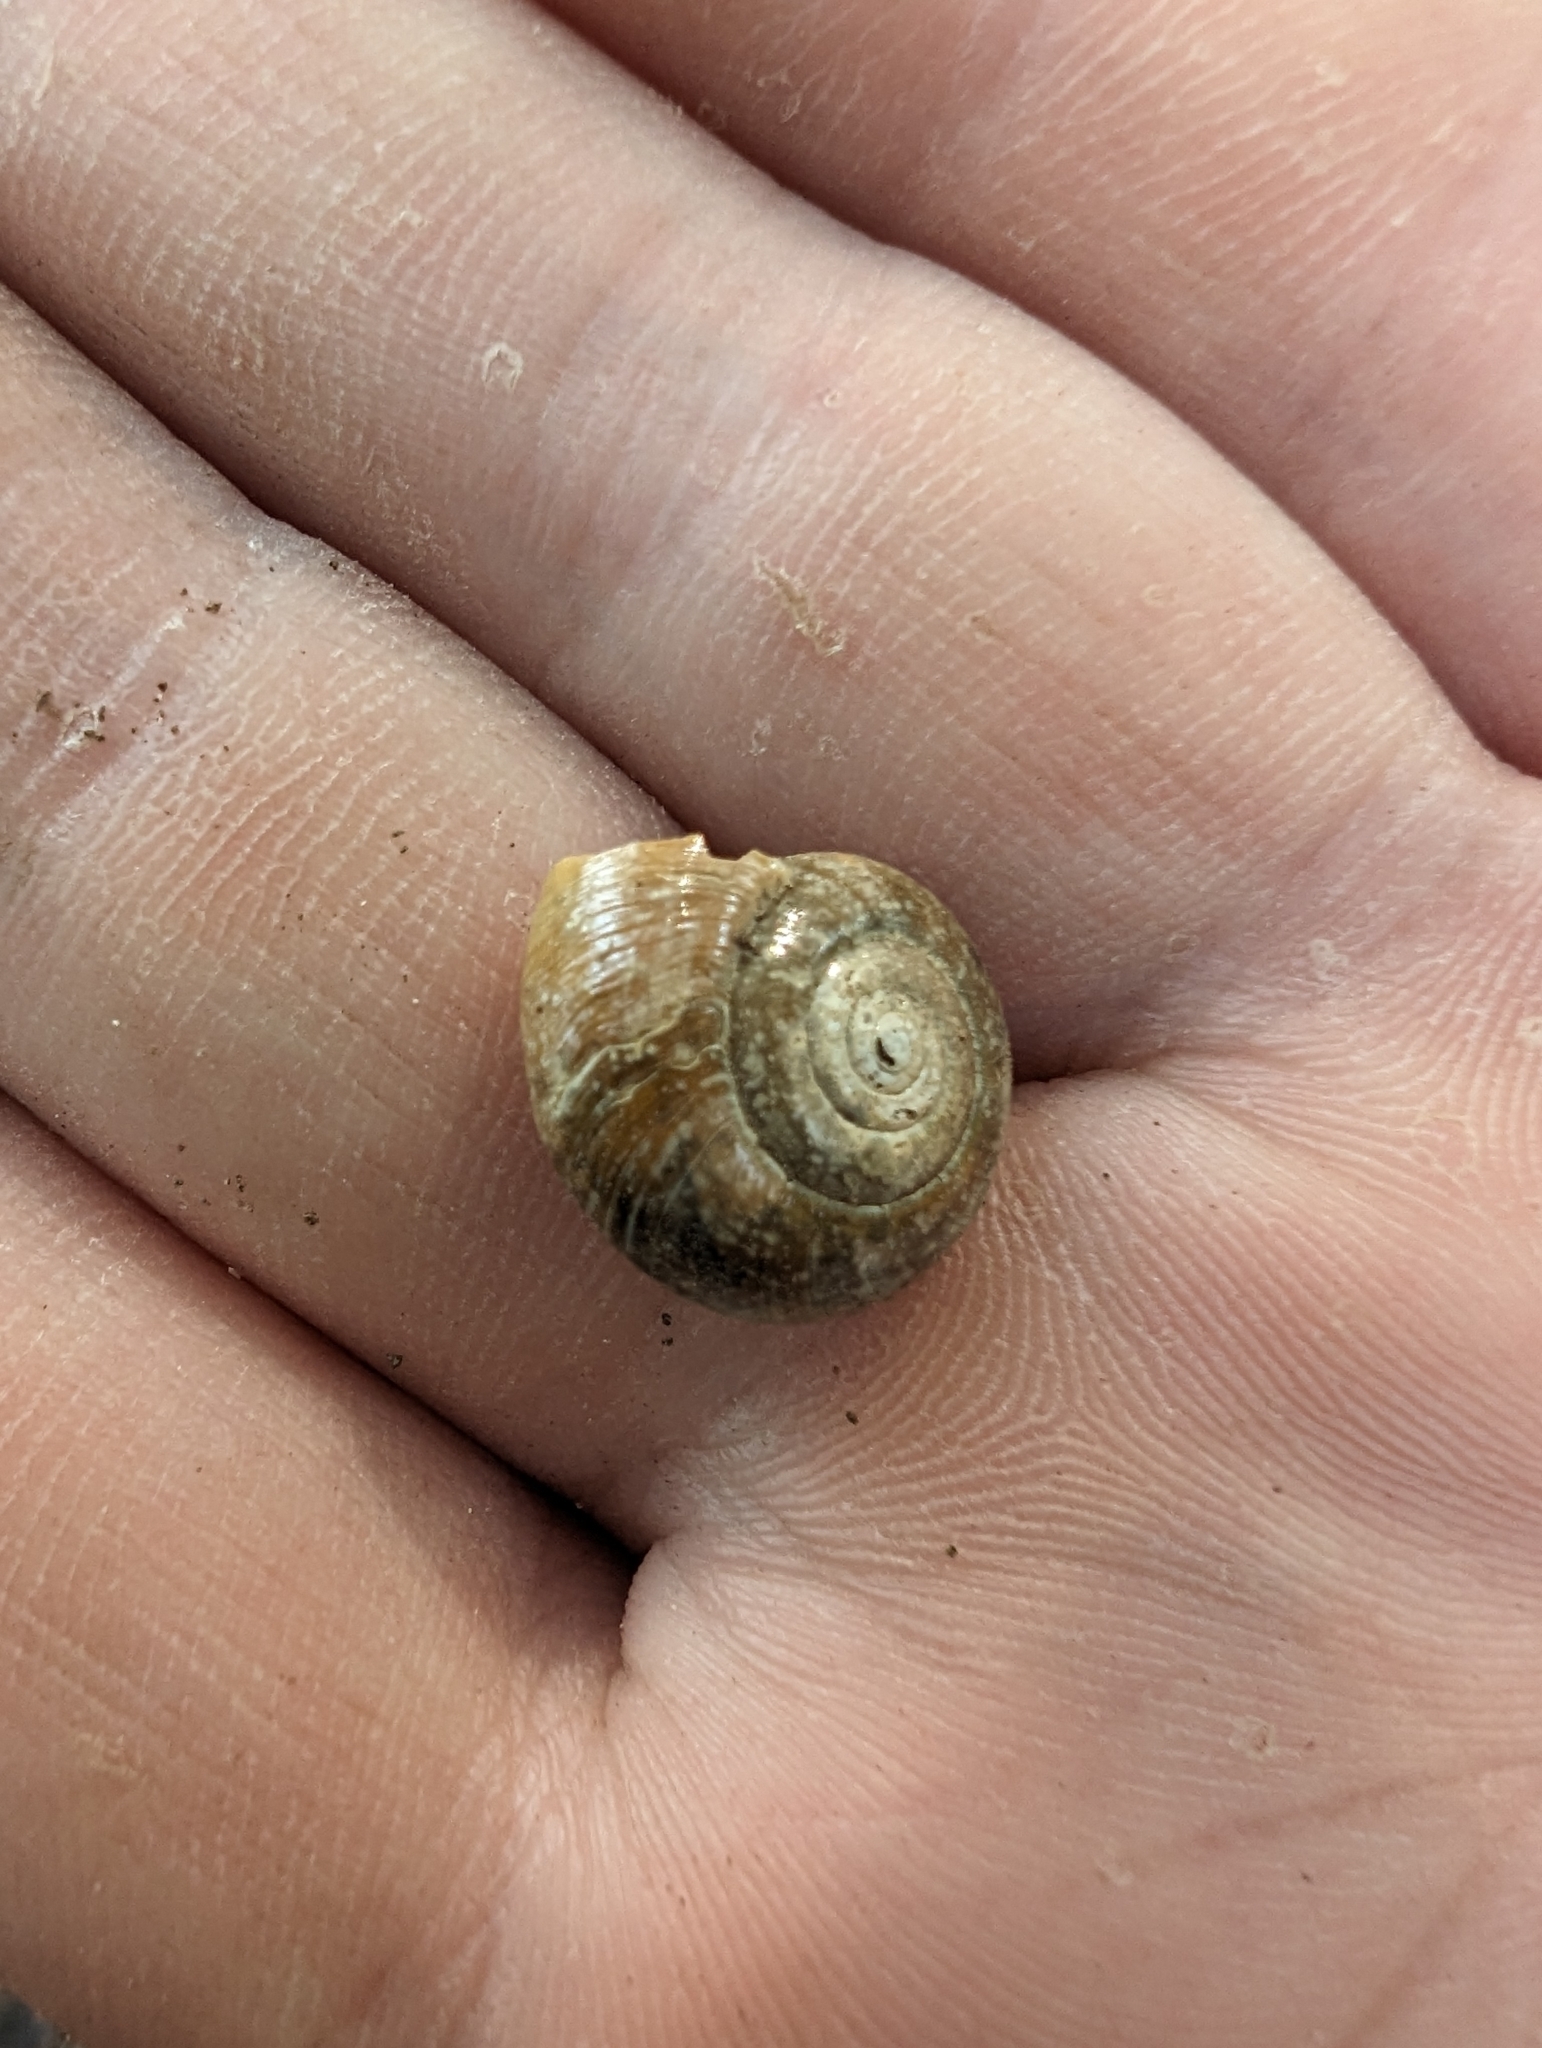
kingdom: Animalia
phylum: Mollusca
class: Gastropoda
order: Stylommatophora
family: Haplotrematidae
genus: Haplotrema
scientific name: Haplotrema vancouverense
